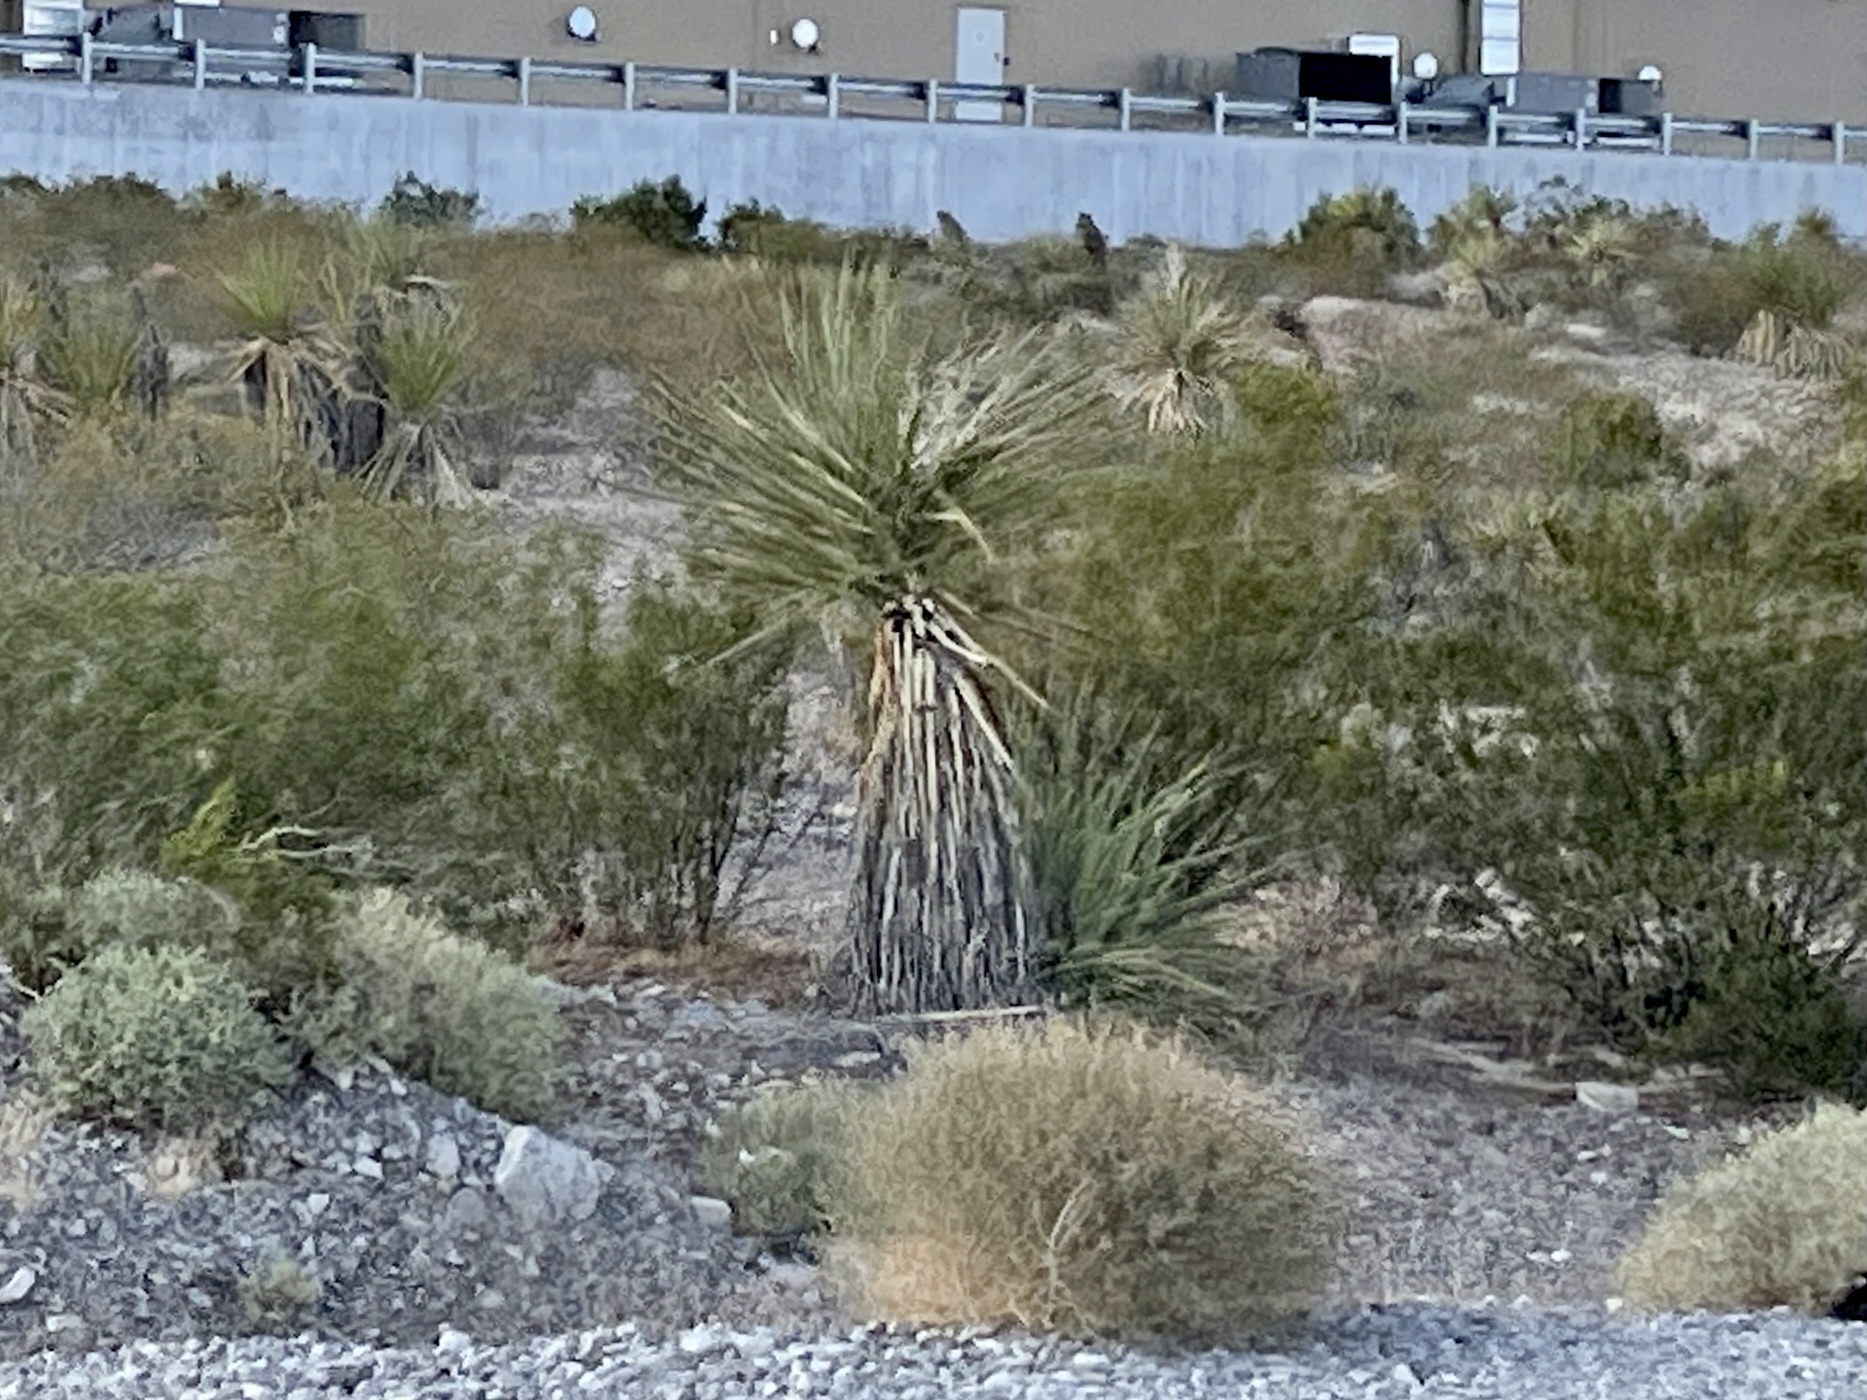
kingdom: Plantae
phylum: Tracheophyta
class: Liliopsida
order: Asparagales
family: Asparagaceae
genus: Yucca
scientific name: Yucca schidigera
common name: Mojave yucca
